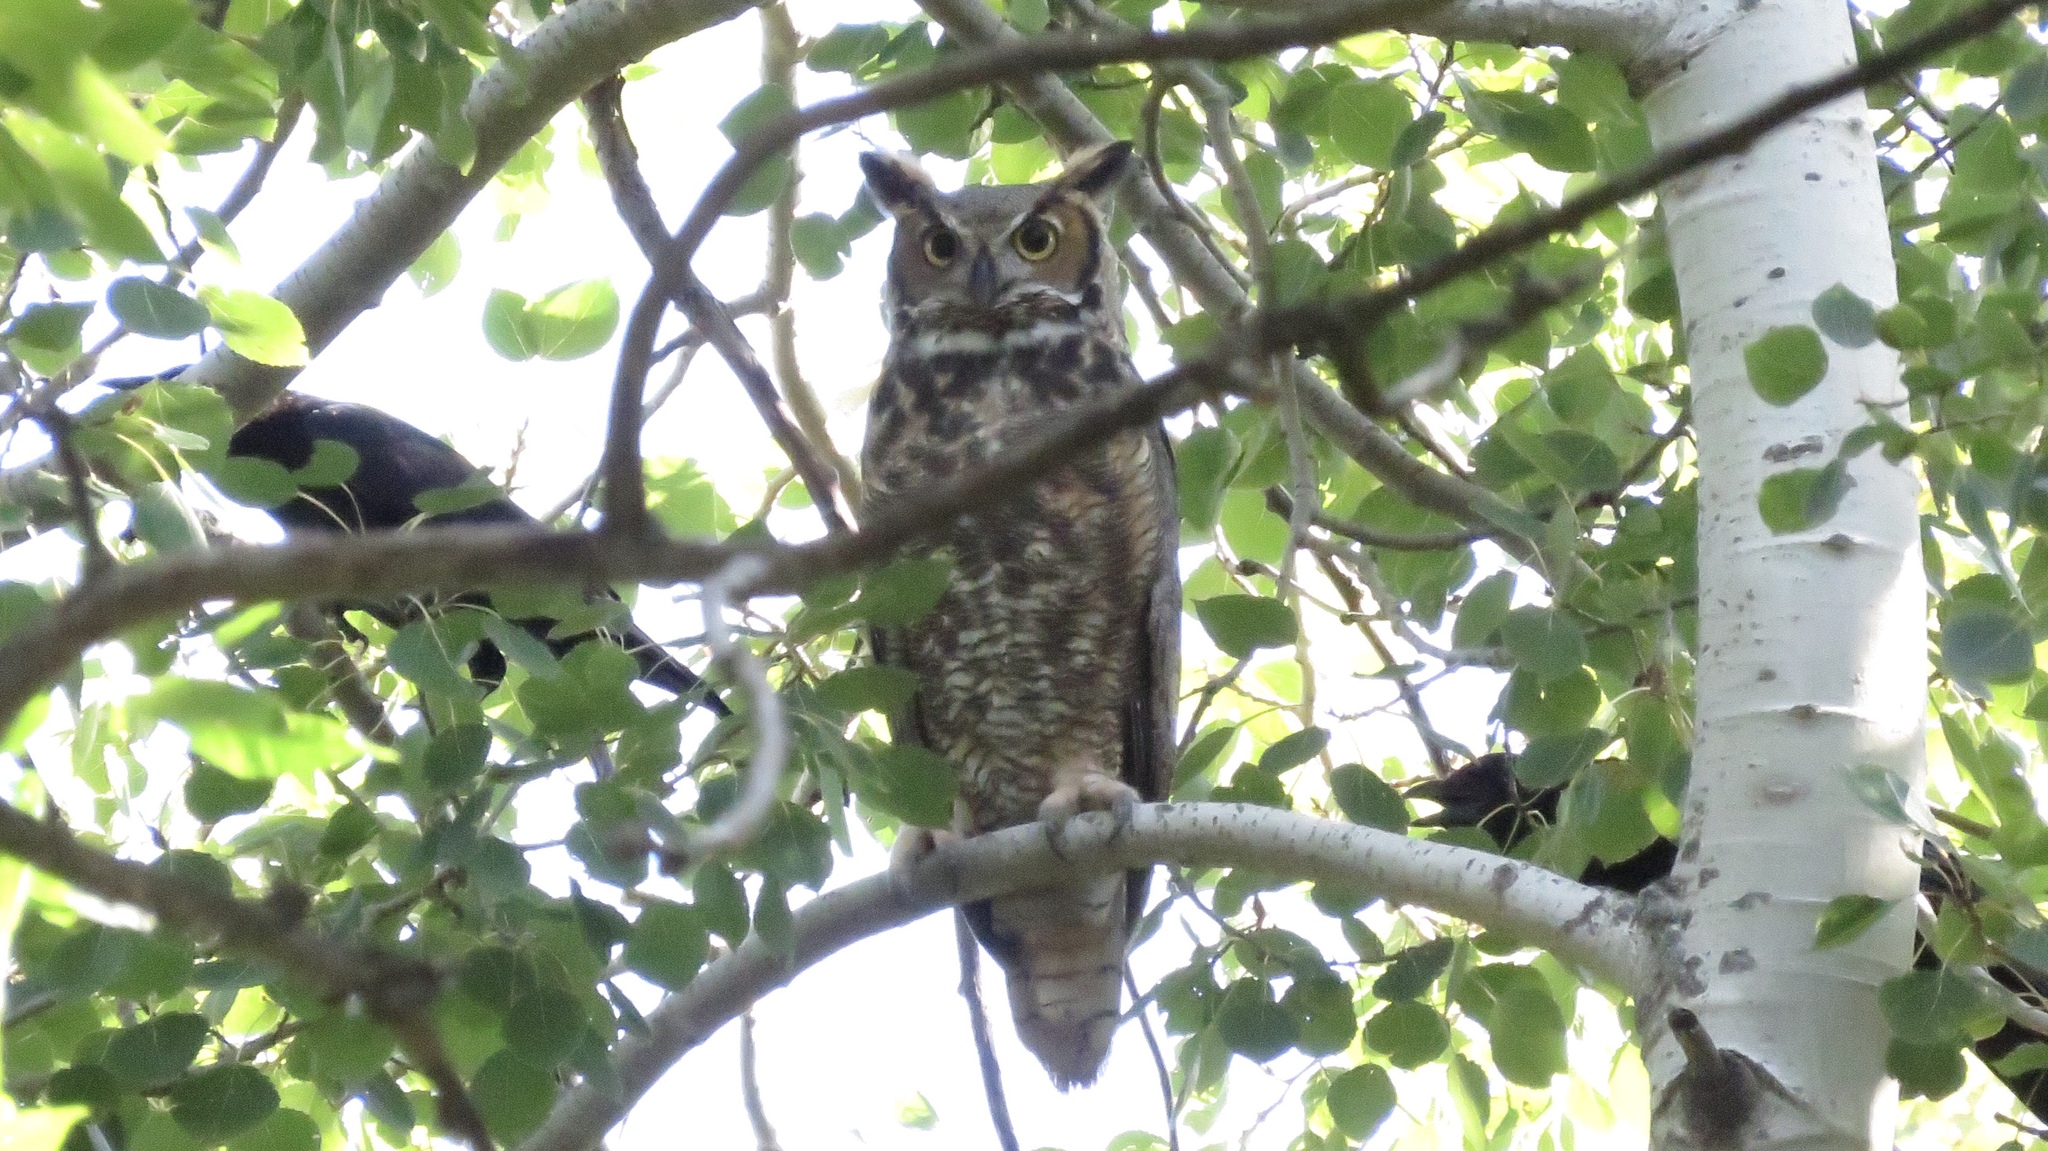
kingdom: Animalia
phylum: Chordata
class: Aves
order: Strigiformes
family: Strigidae
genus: Bubo
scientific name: Bubo virginianus
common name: Great horned owl
